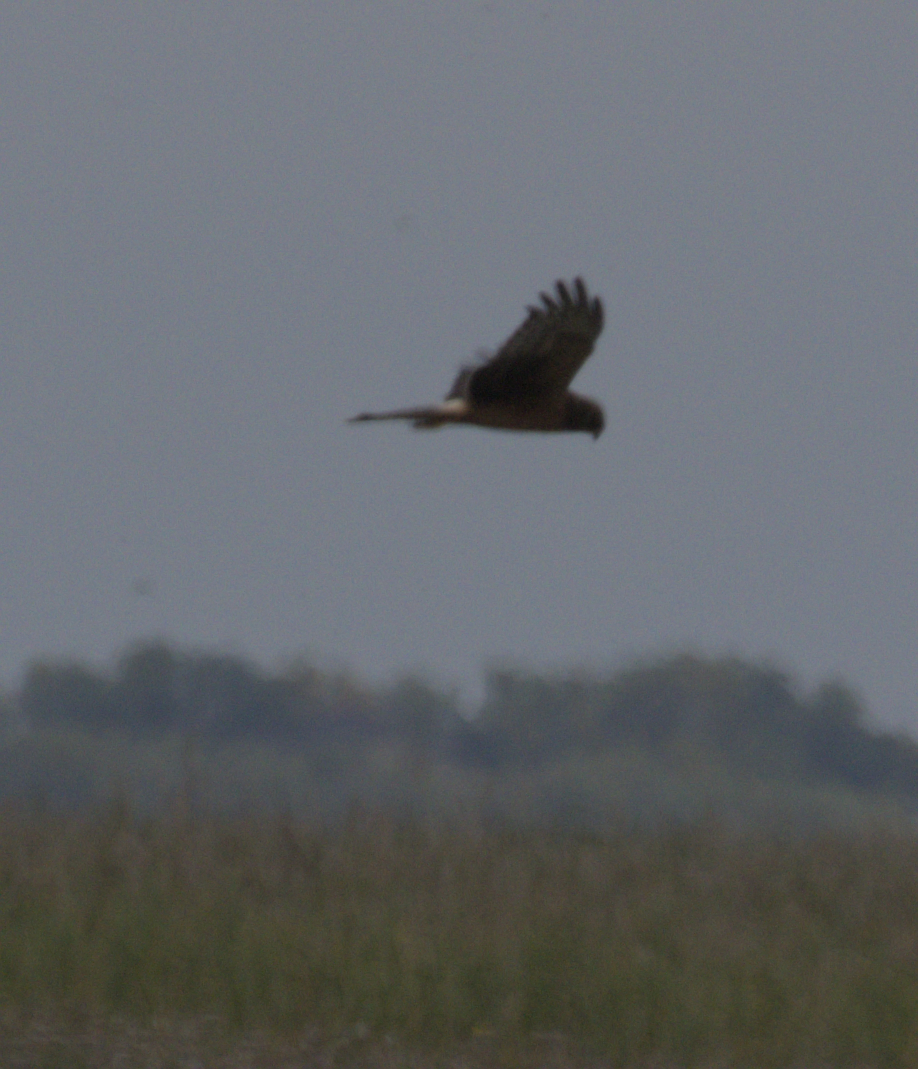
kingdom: Animalia
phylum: Chordata
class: Aves
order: Accipitriformes
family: Accipitridae
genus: Circus
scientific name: Circus cyaneus
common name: Hen harrier
